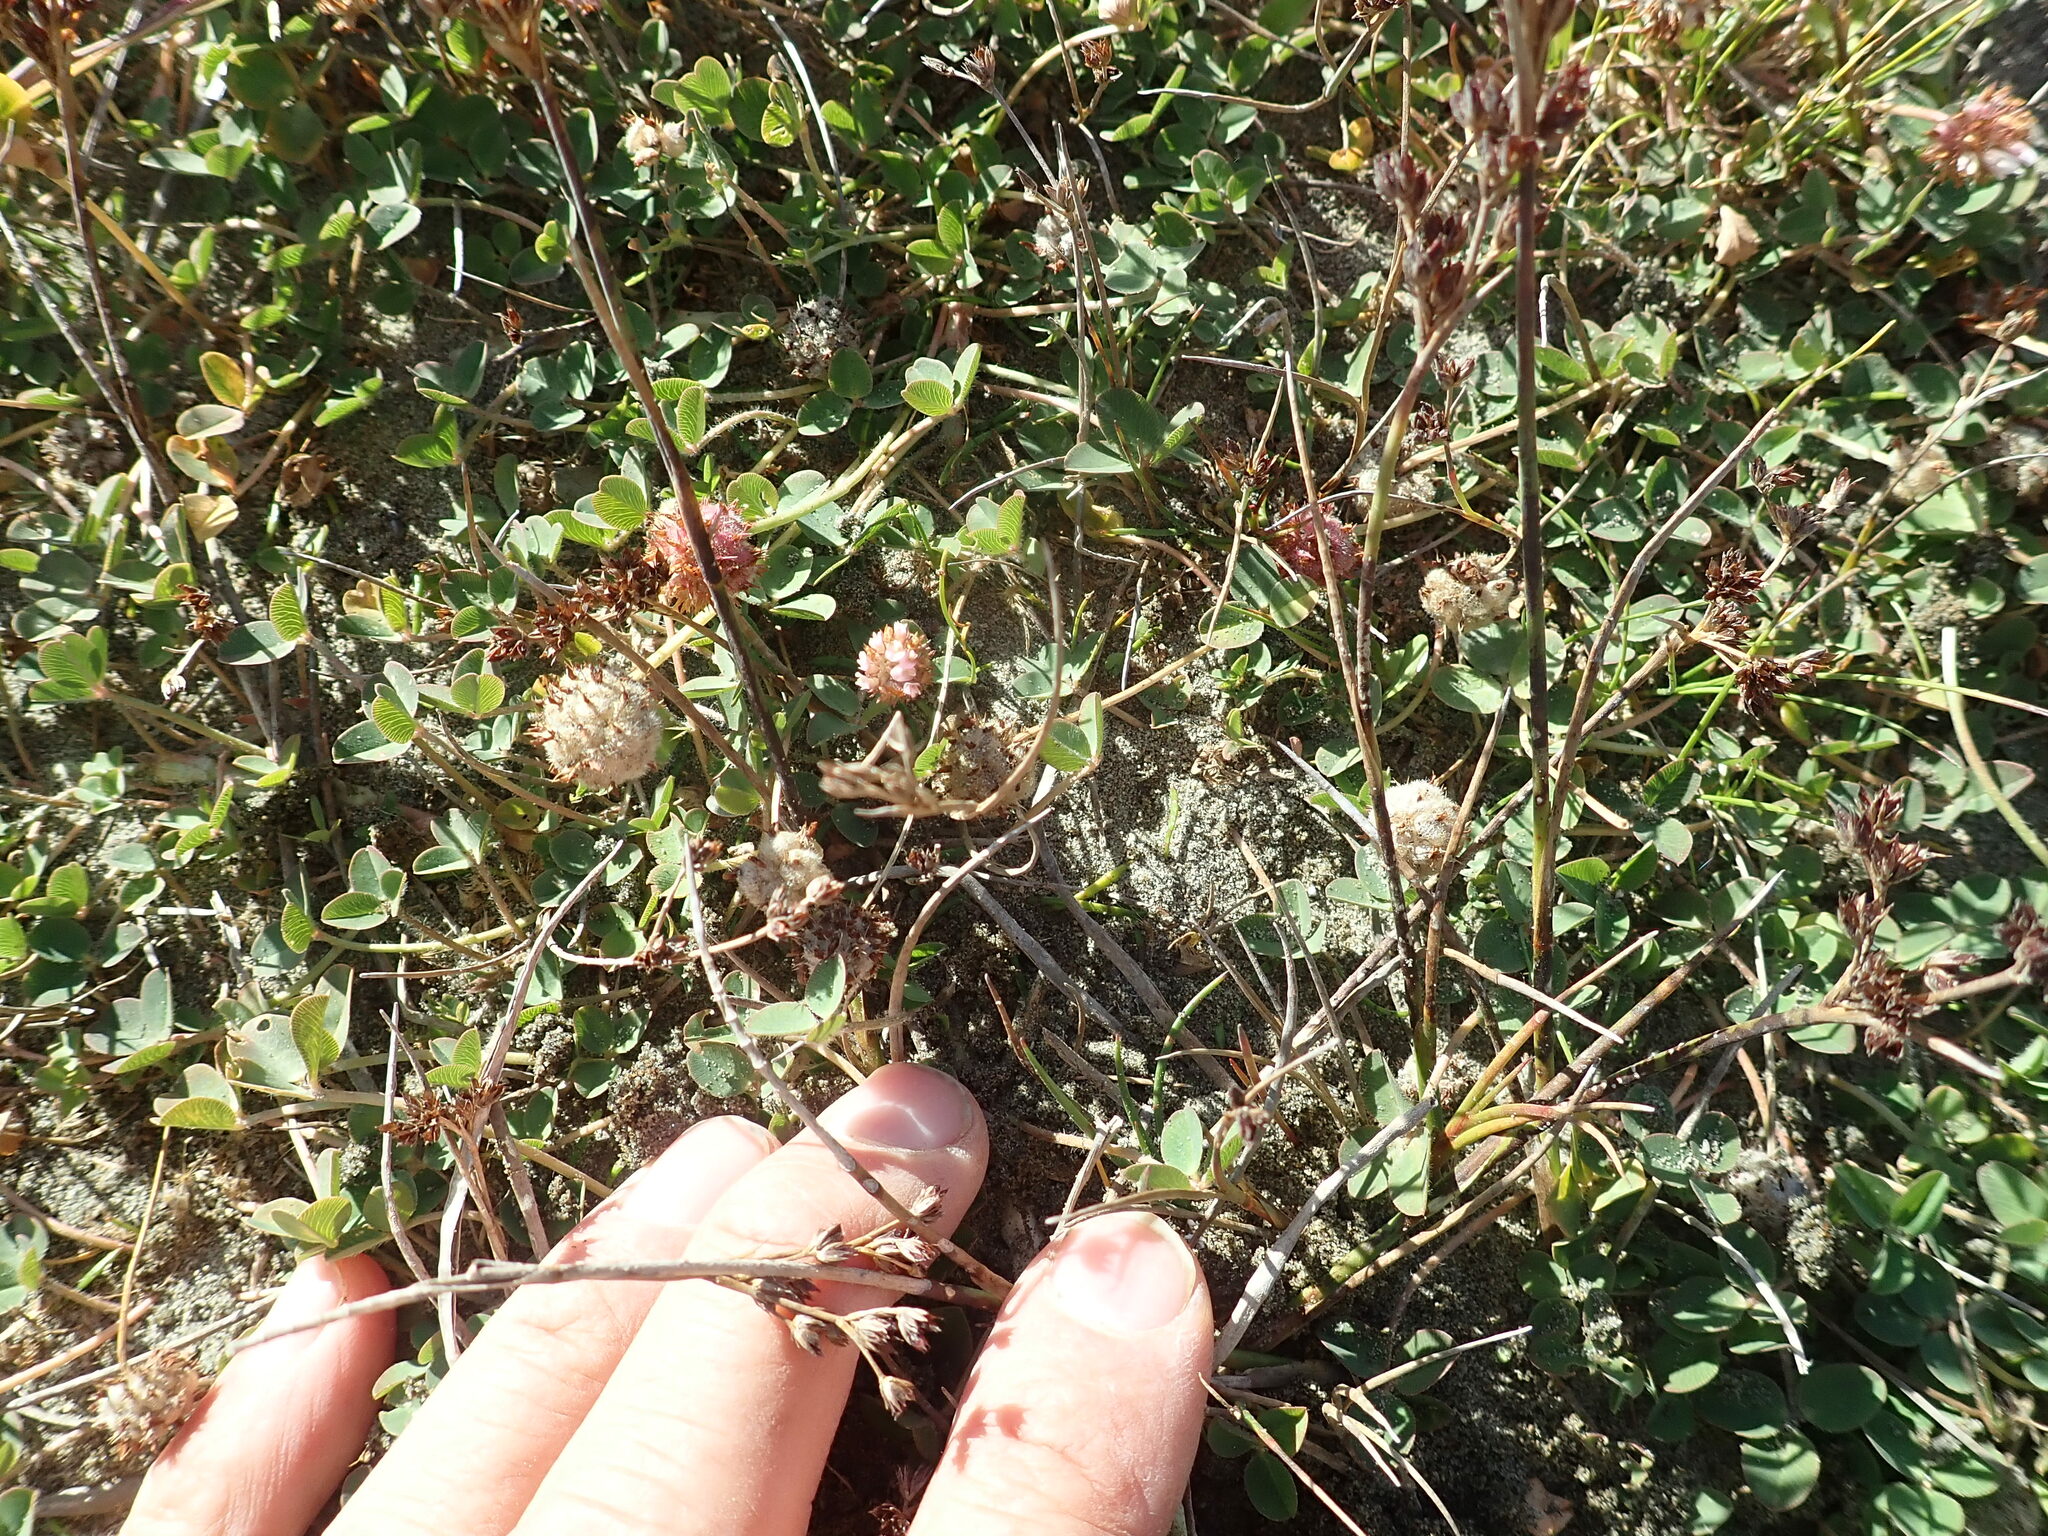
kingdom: Plantae
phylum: Tracheophyta
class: Magnoliopsida
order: Fabales
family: Fabaceae
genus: Trifolium
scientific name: Trifolium fragiferum
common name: Strawberry clover
